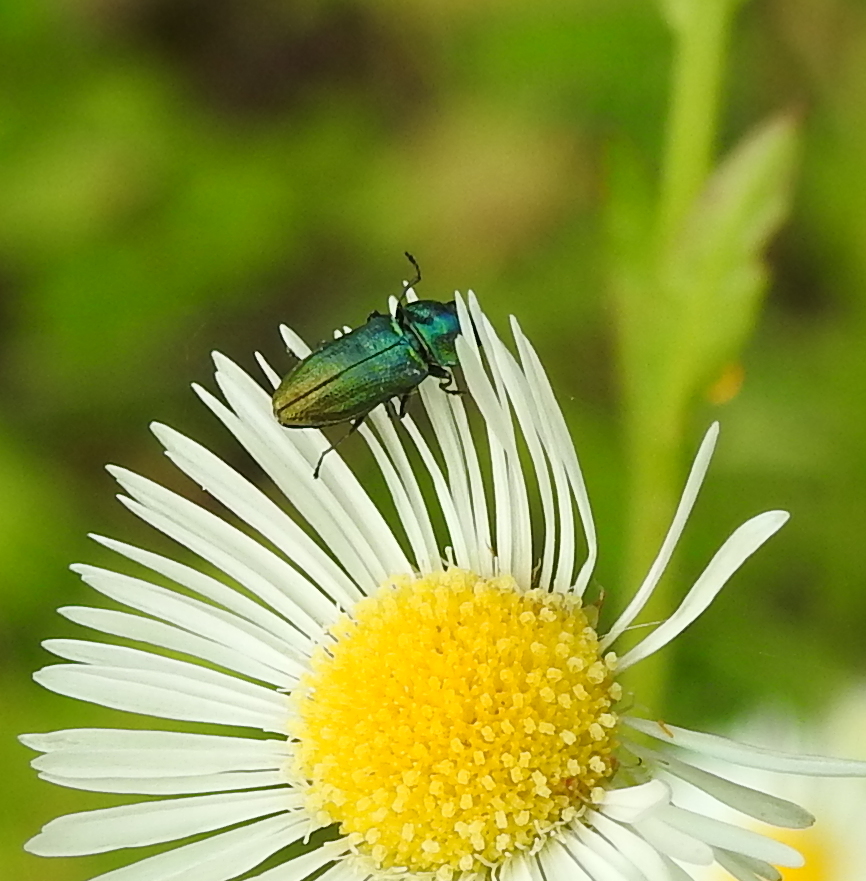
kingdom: Animalia
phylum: Arthropoda
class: Insecta
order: Coleoptera
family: Buprestidae
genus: Anthaxia
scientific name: Anthaxia thalassophila
